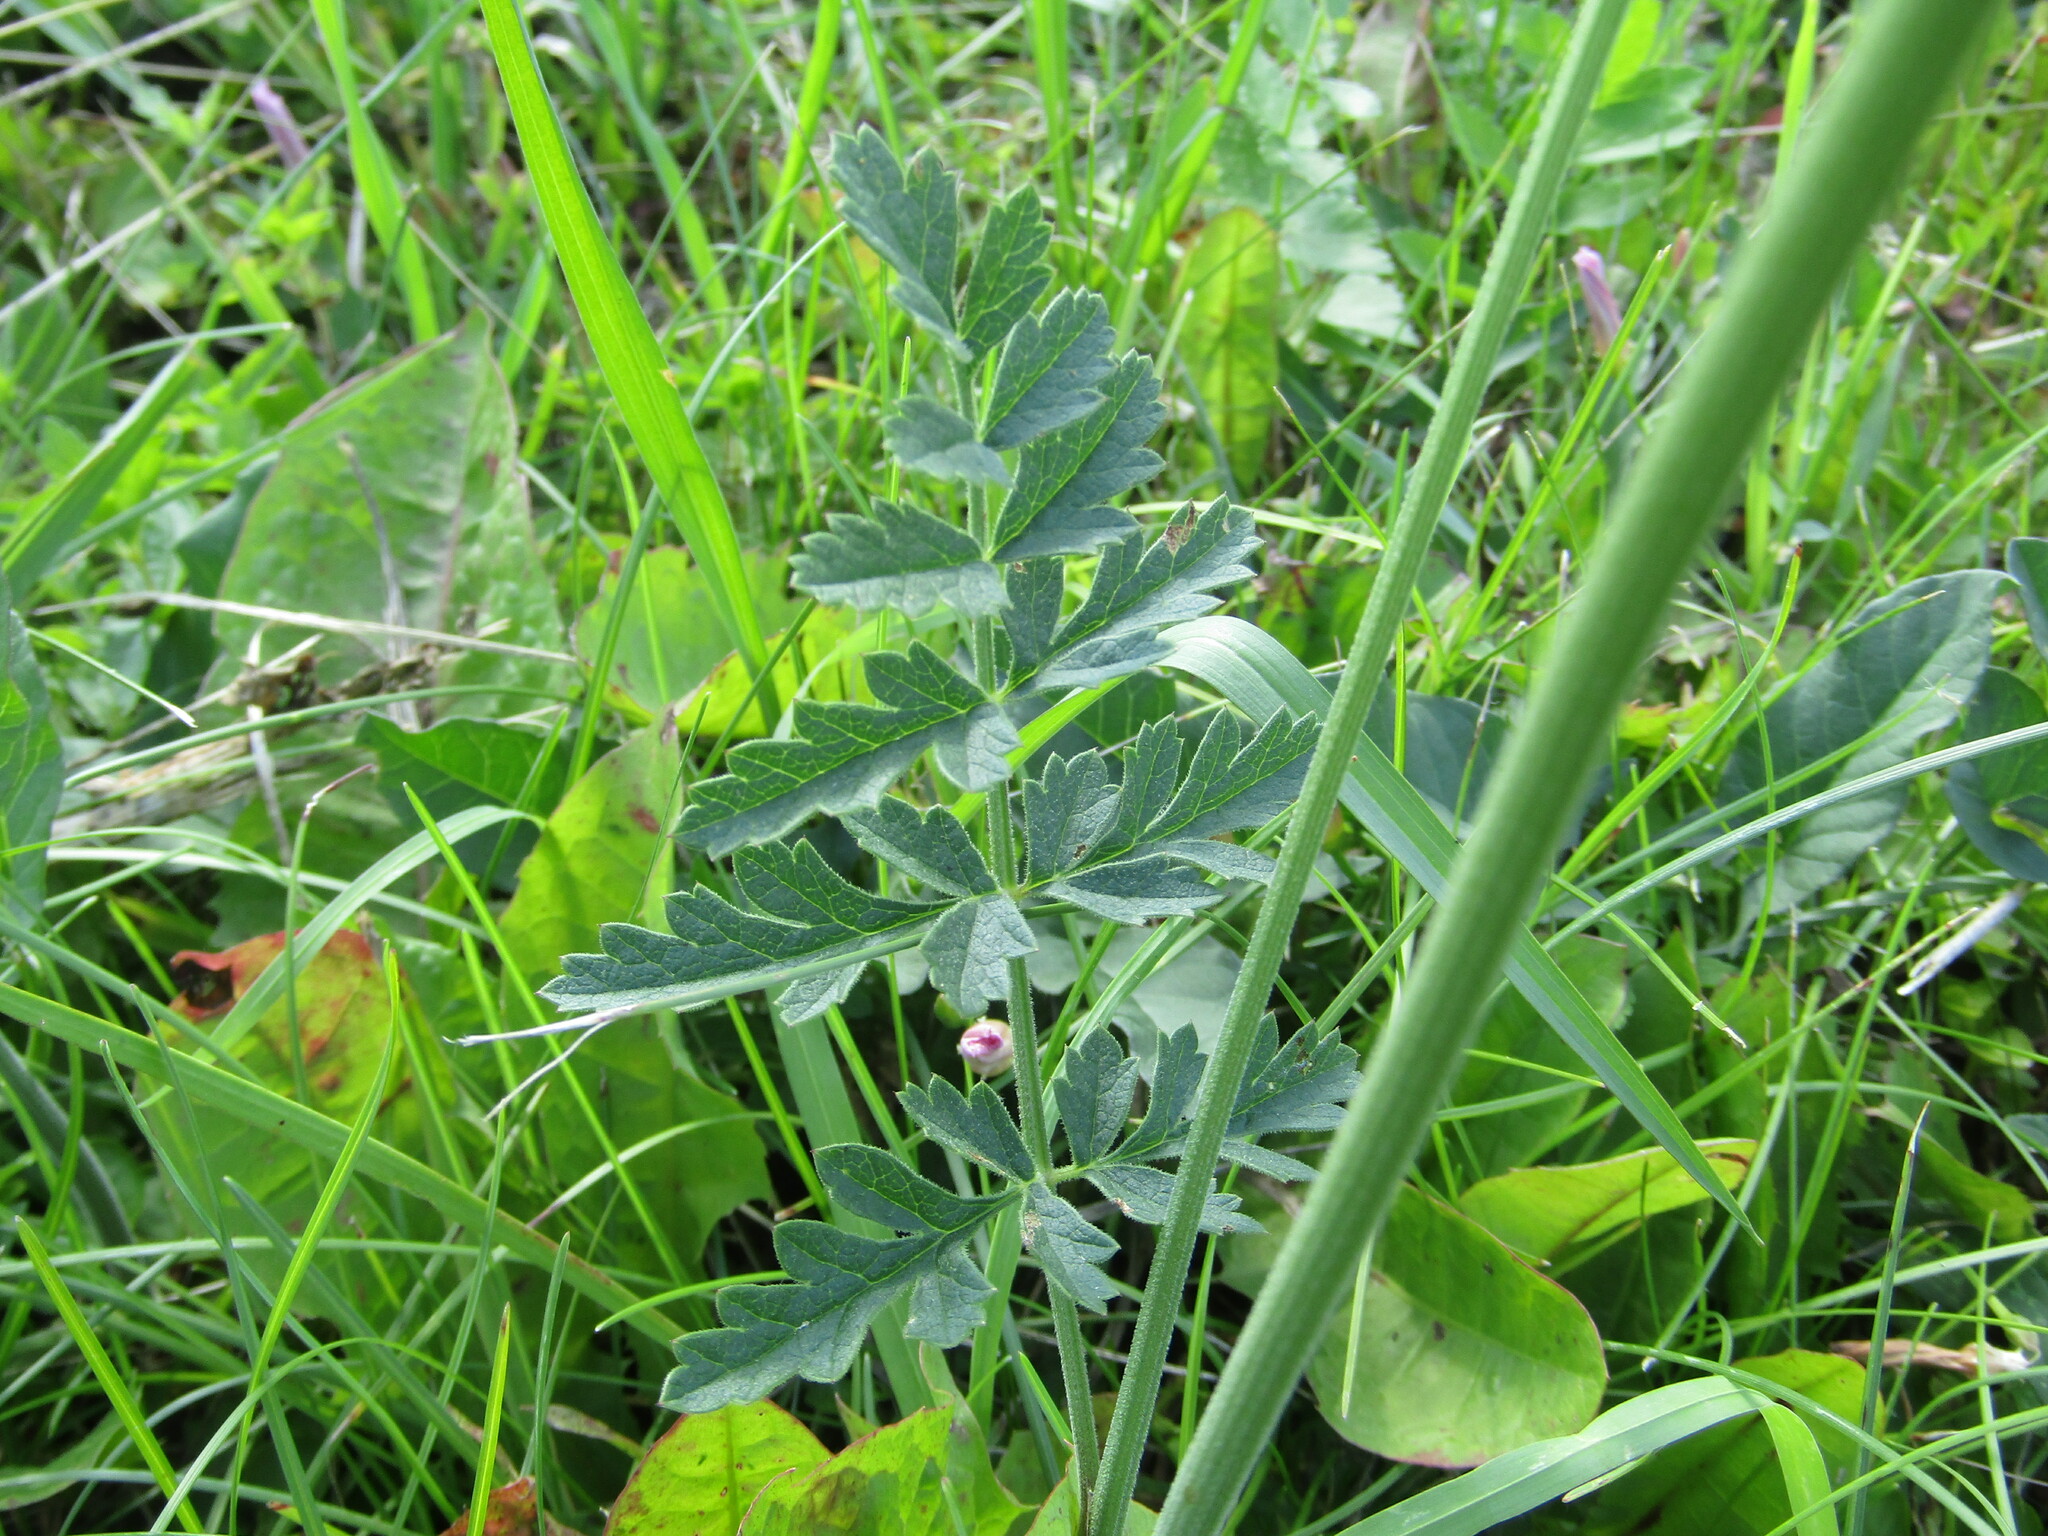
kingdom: Plantae
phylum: Tracheophyta
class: Magnoliopsida
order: Apiales
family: Apiaceae
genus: Pimpinella
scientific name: Pimpinella saxifraga
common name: Burnet-saxifrage
